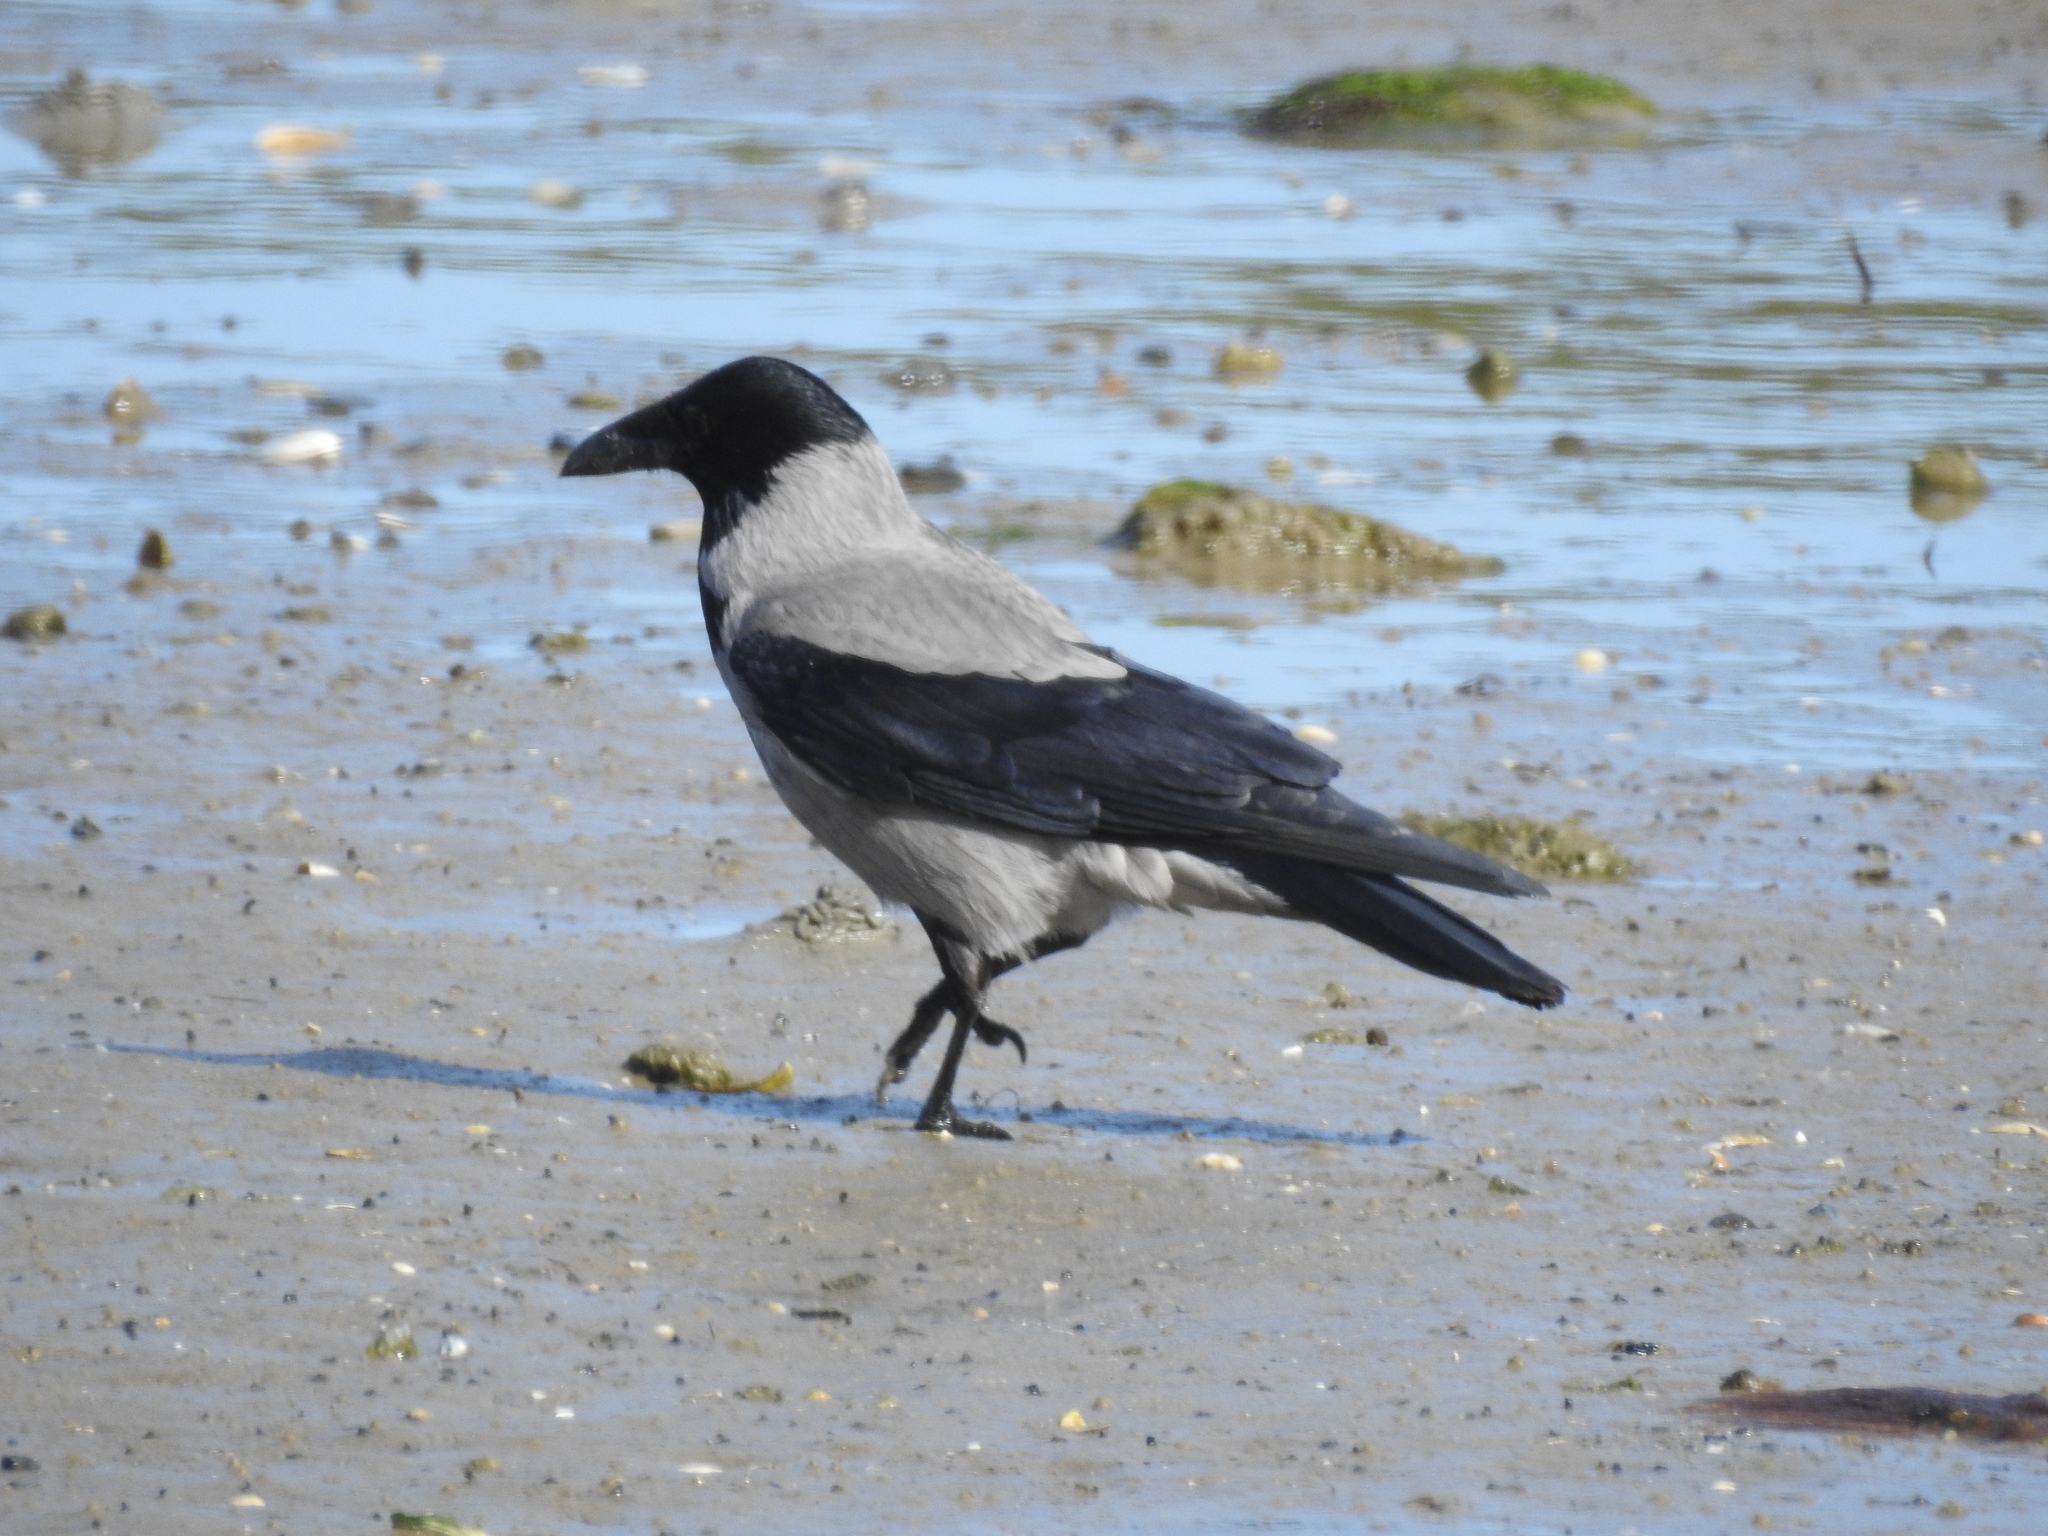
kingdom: Animalia
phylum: Chordata
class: Aves
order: Passeriformes
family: Corvidae
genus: Corvus
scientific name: Corvus cornix
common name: Hooded crow
